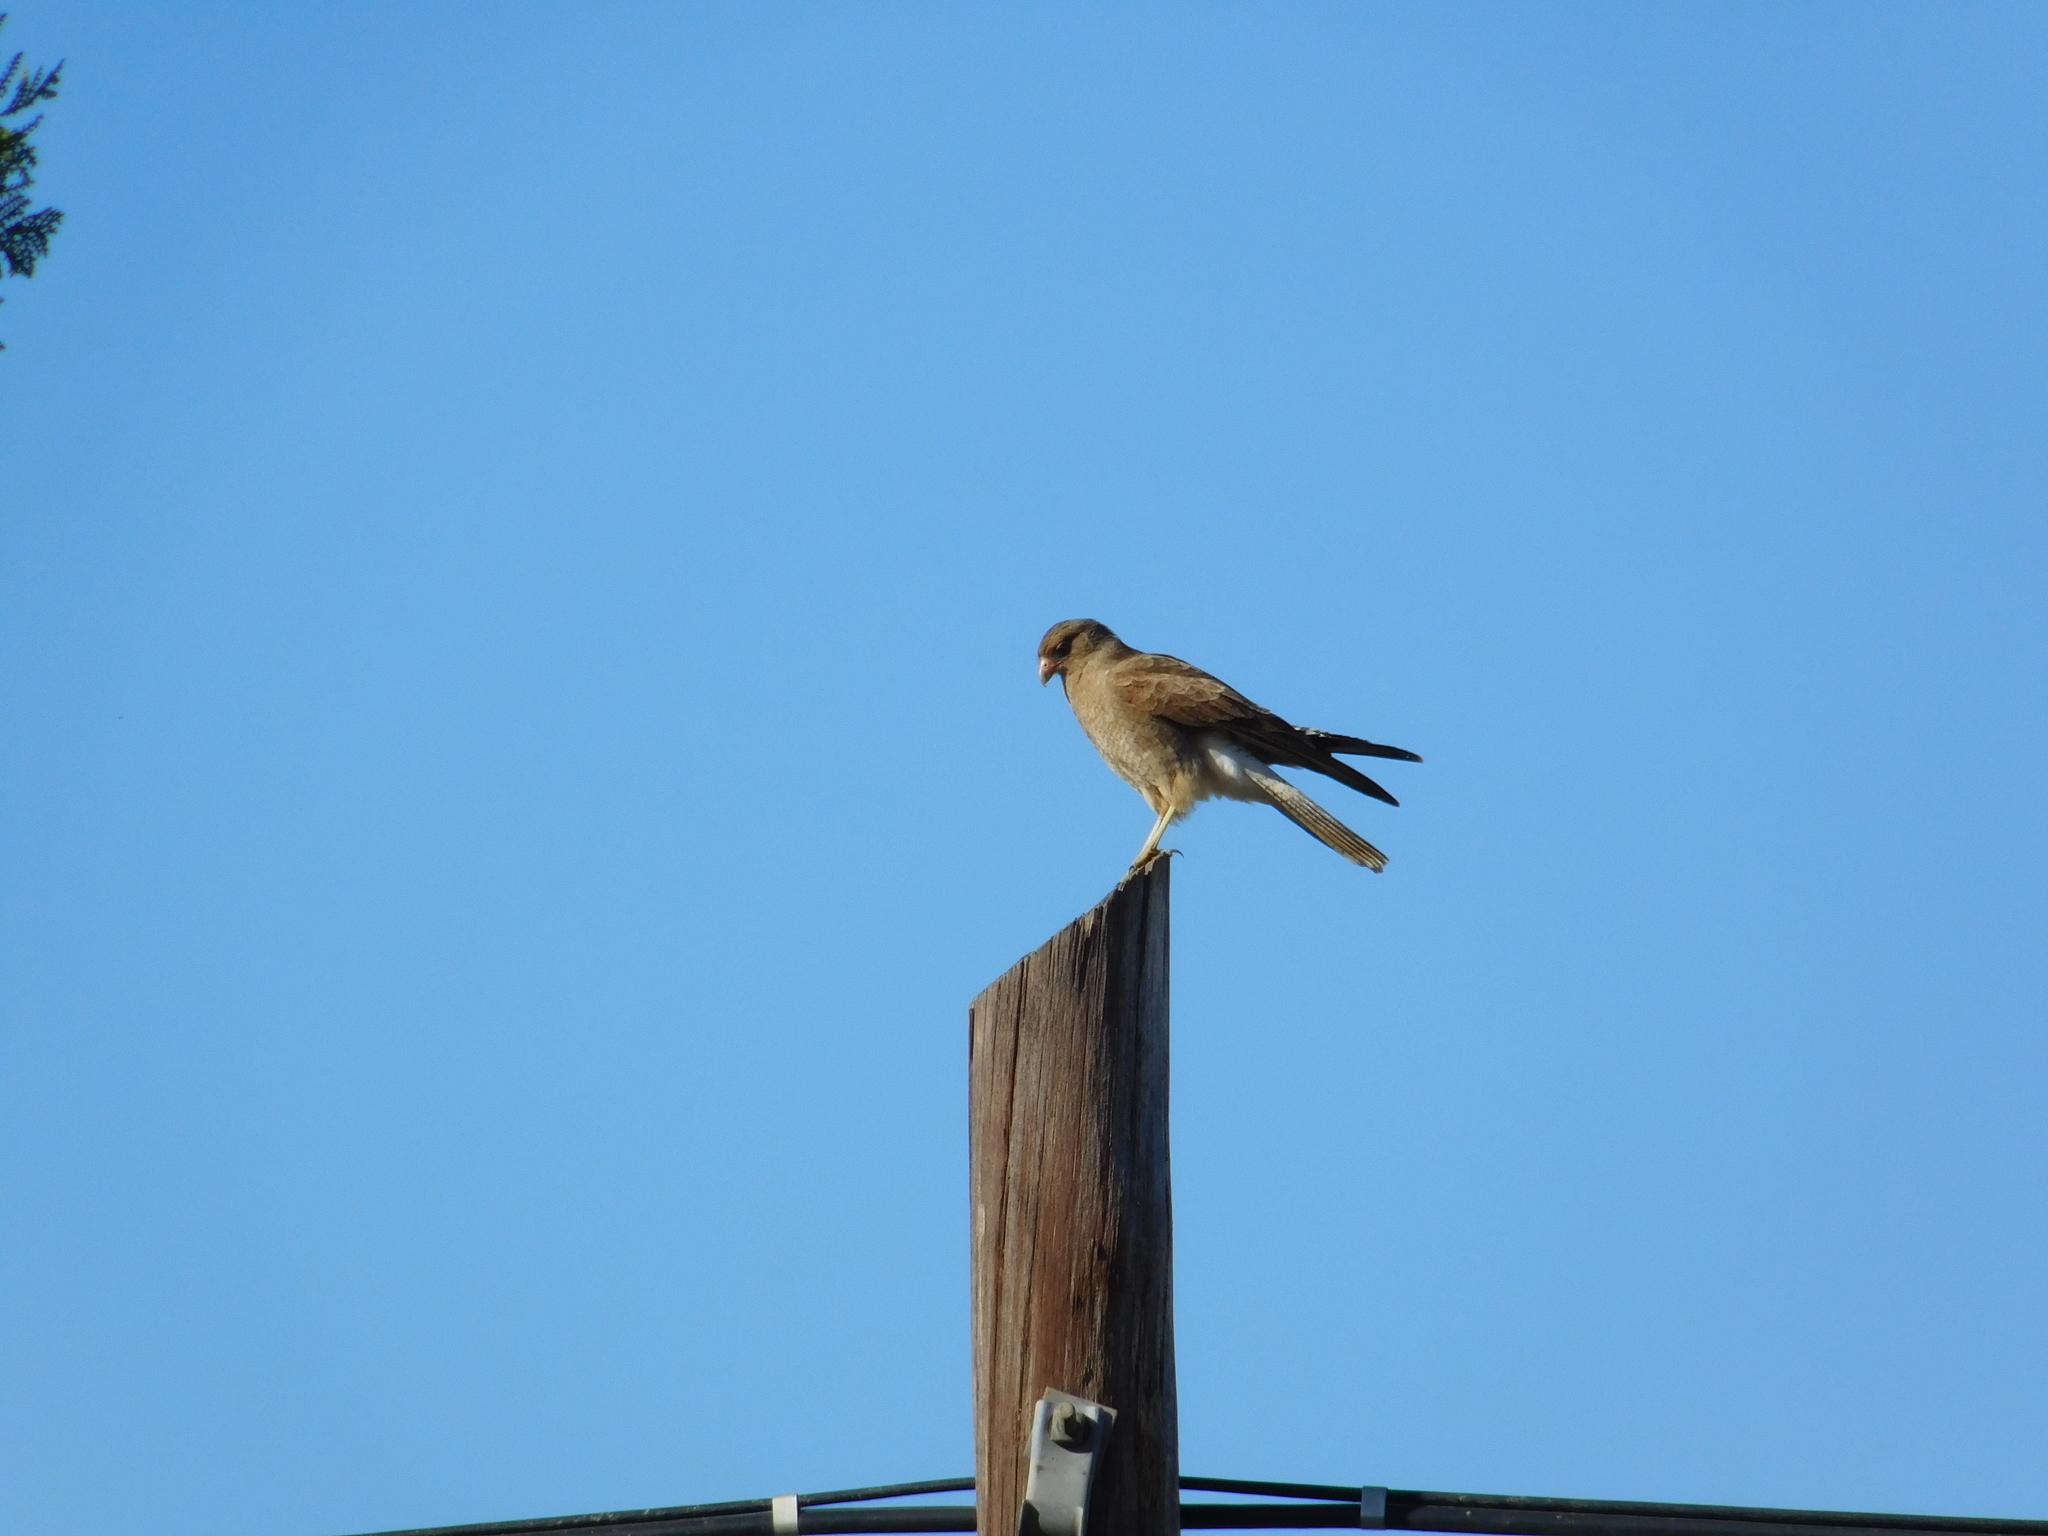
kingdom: Animalia
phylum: Chordata
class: Aves
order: Falconiformes
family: Falconidae
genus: Daptrius
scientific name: Daptrius
